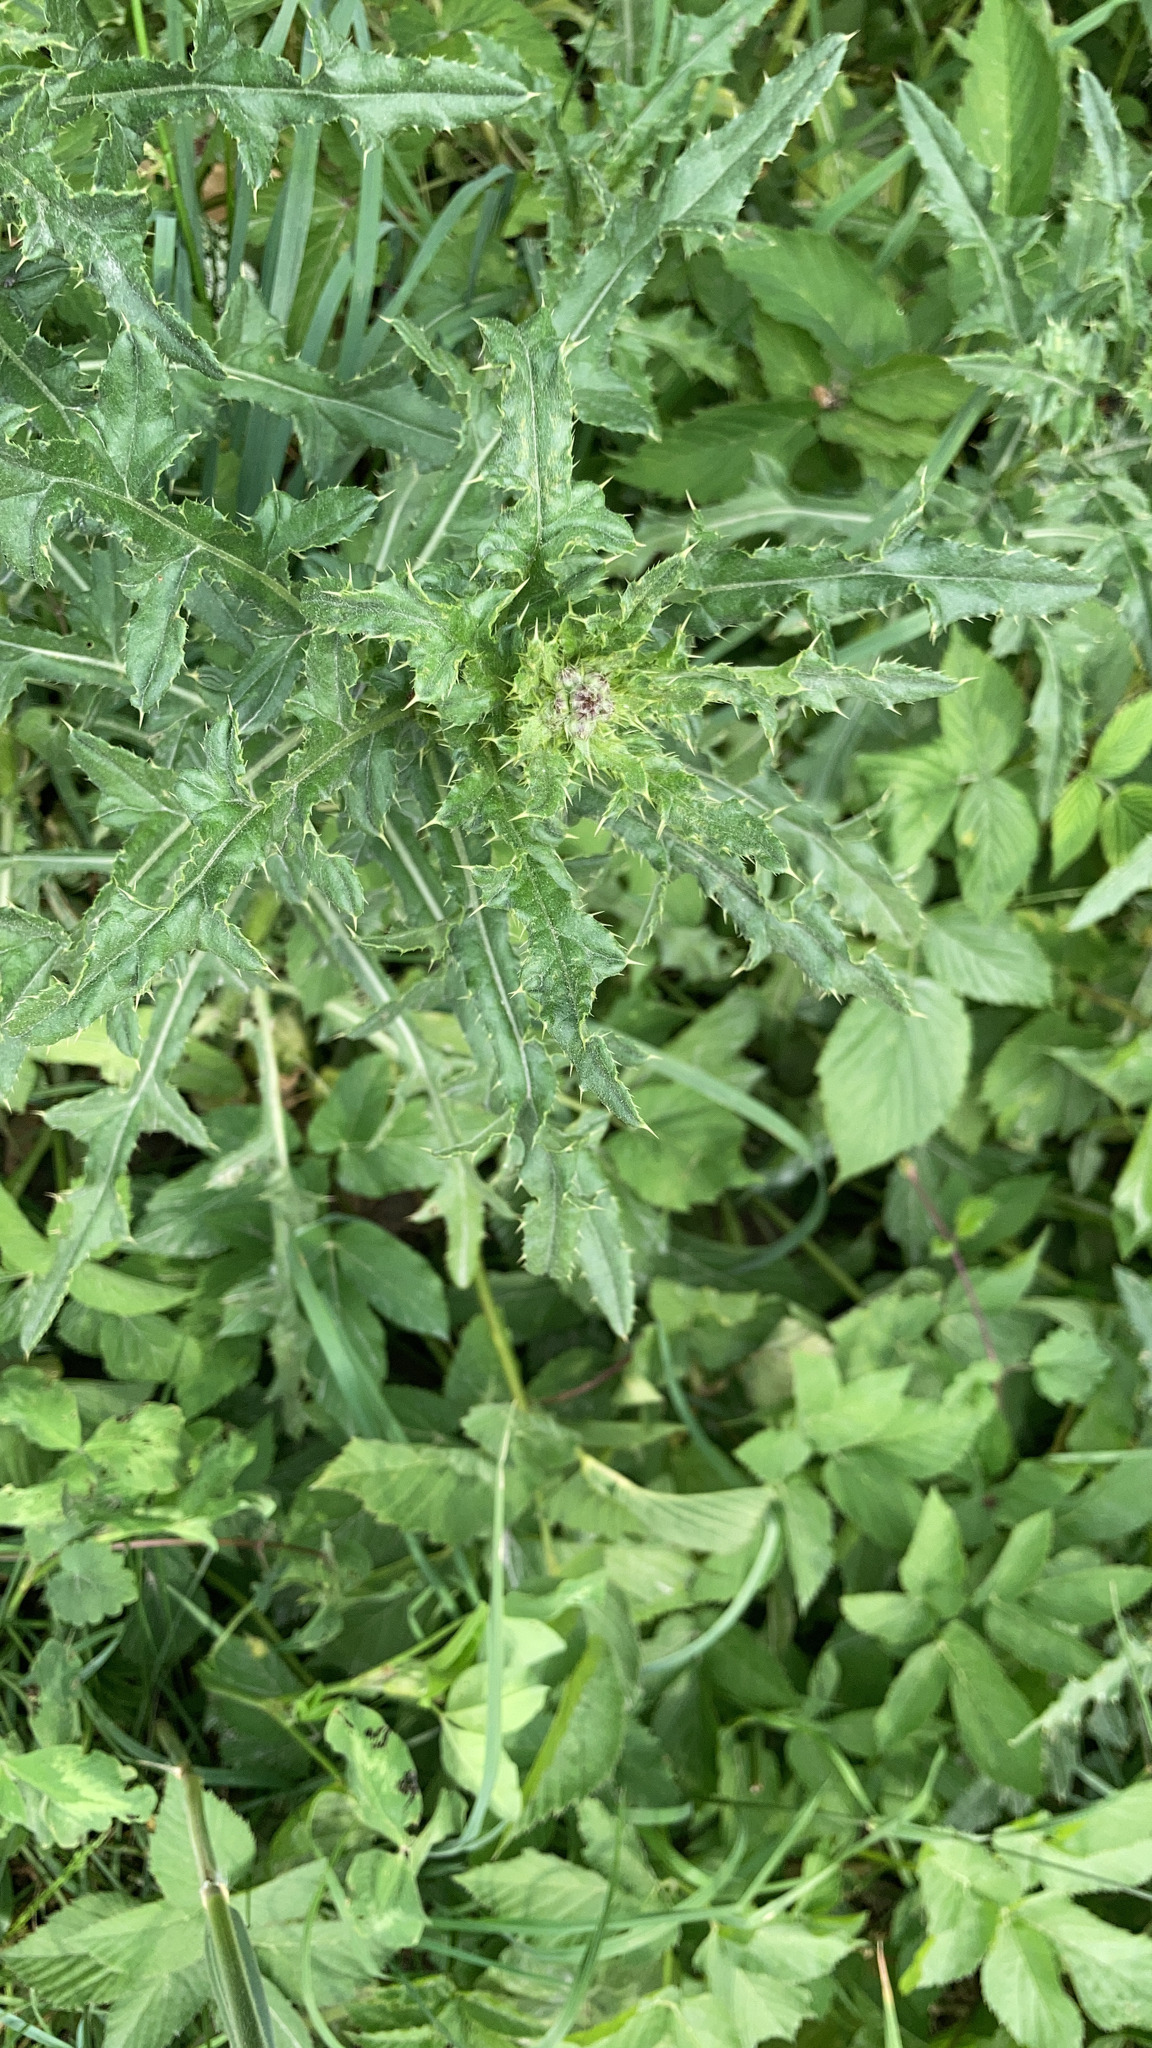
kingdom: Plantae
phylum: Tracheophyta
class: Magnoliopsida
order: Asterales
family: Asteraceae
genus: Cirsium
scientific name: Cirsium arvense
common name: Creeping thistle
